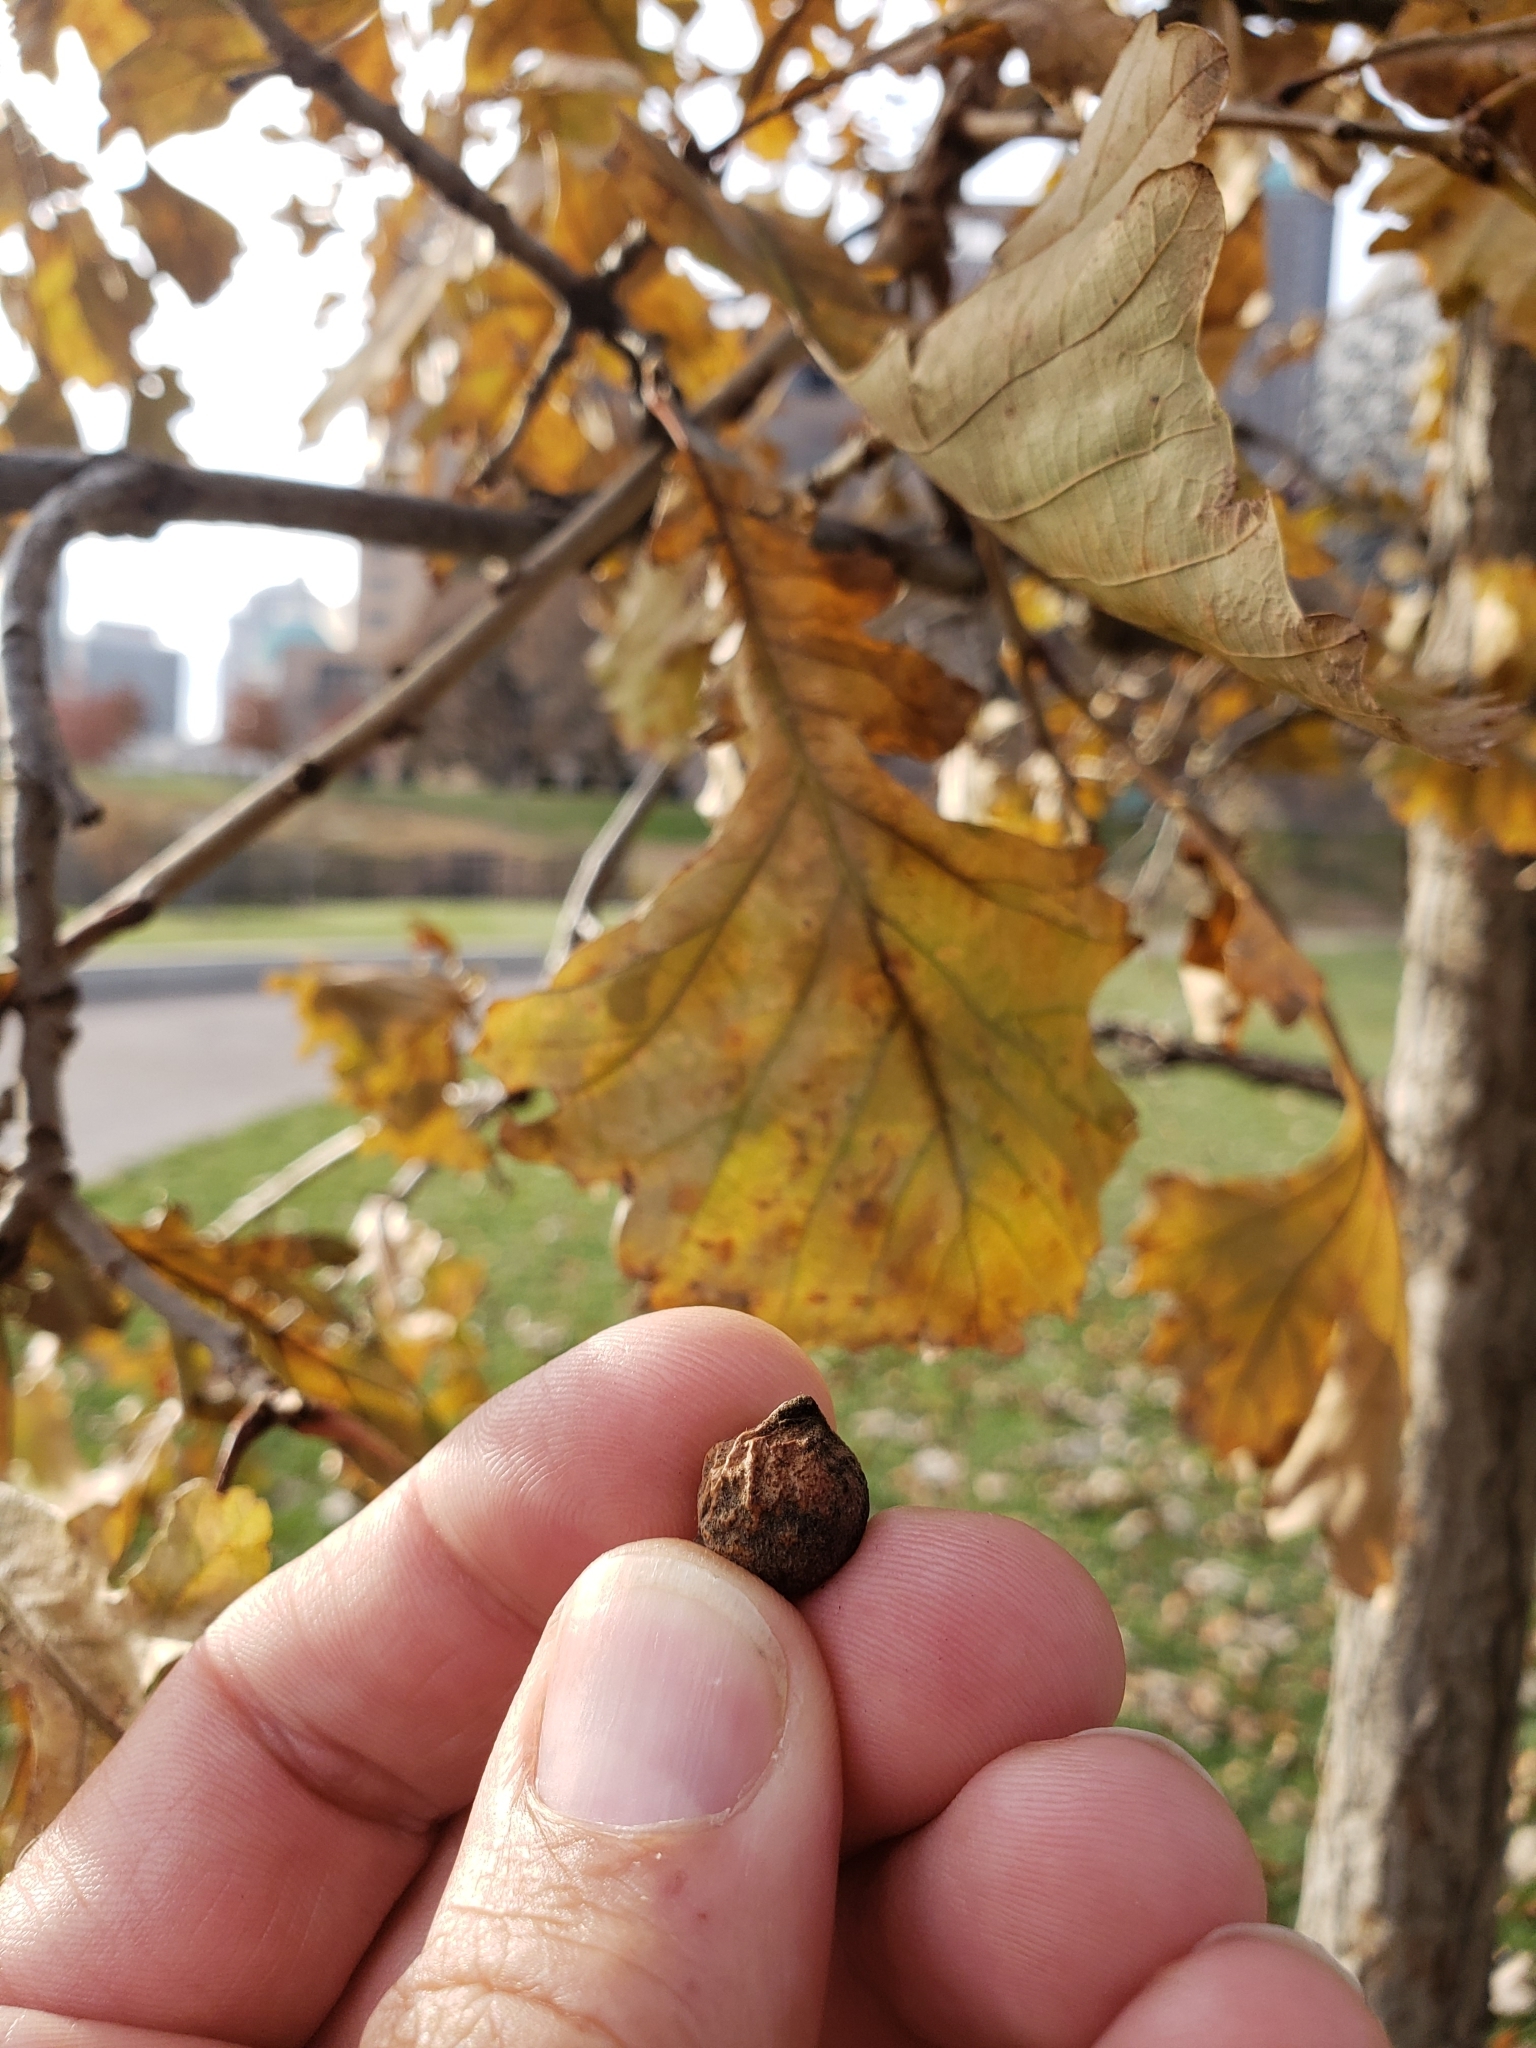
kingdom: Animalia
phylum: Arthropoda
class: Insecta
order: Hymenoptera
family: Cynipidae
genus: Disholcaspis
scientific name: Disholcaspis
